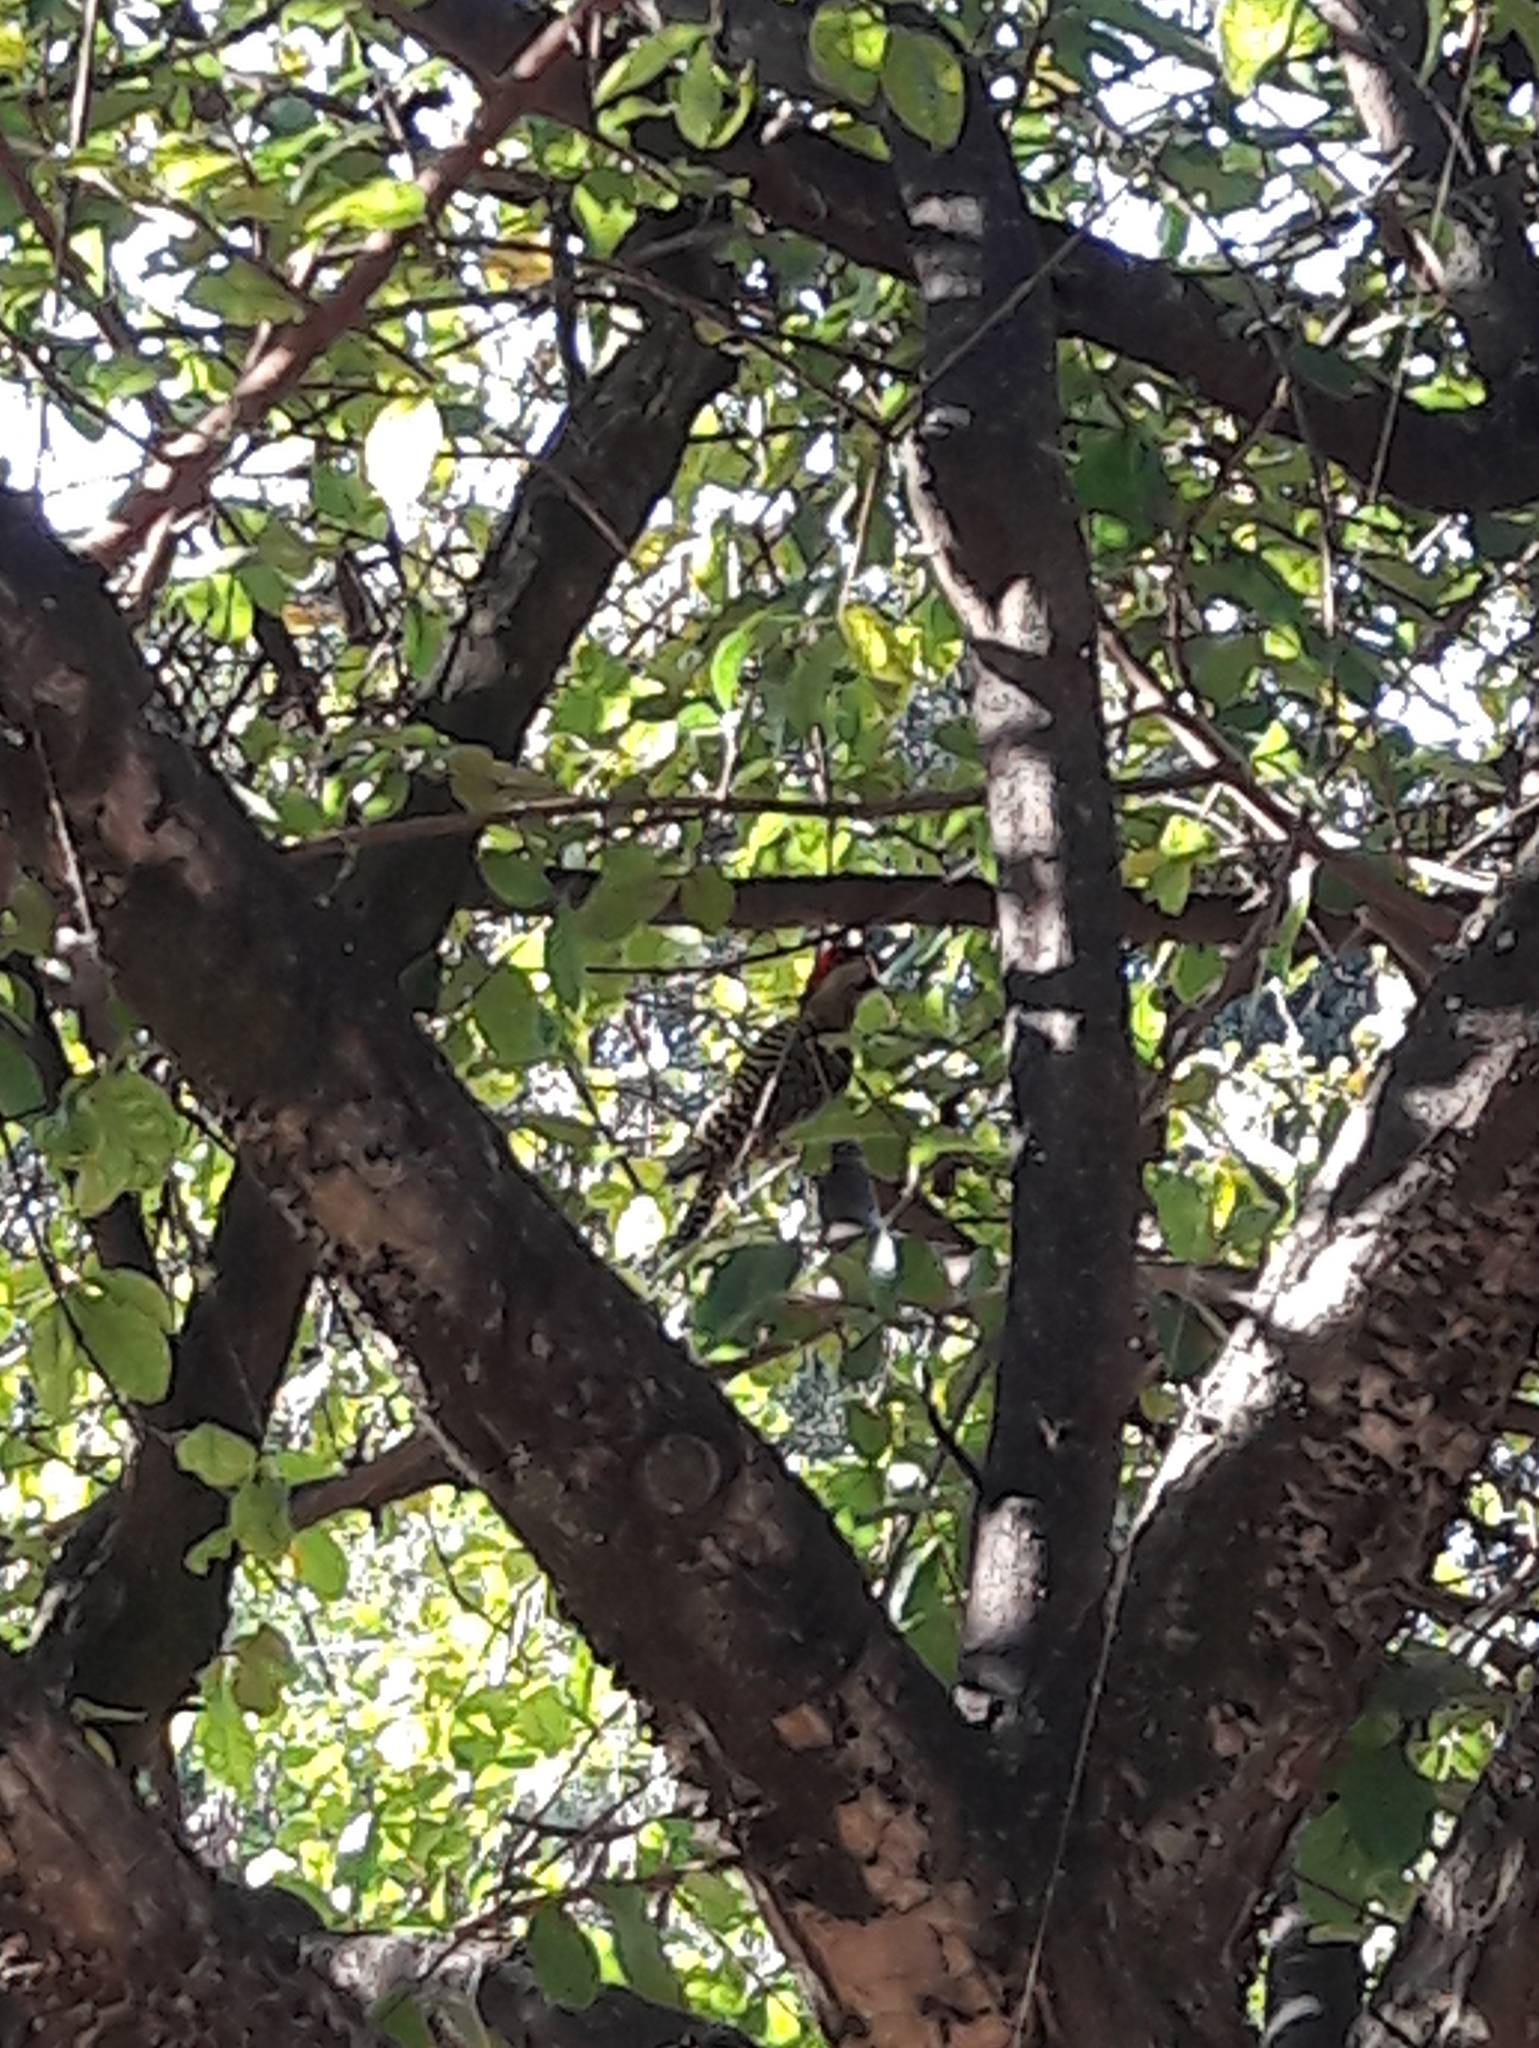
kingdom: Animalia
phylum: Chordata
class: Aves
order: Piciformes
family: Picidae
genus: Colaptes
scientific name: Colaptes melanochloros
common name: Green-barred woodpecker
